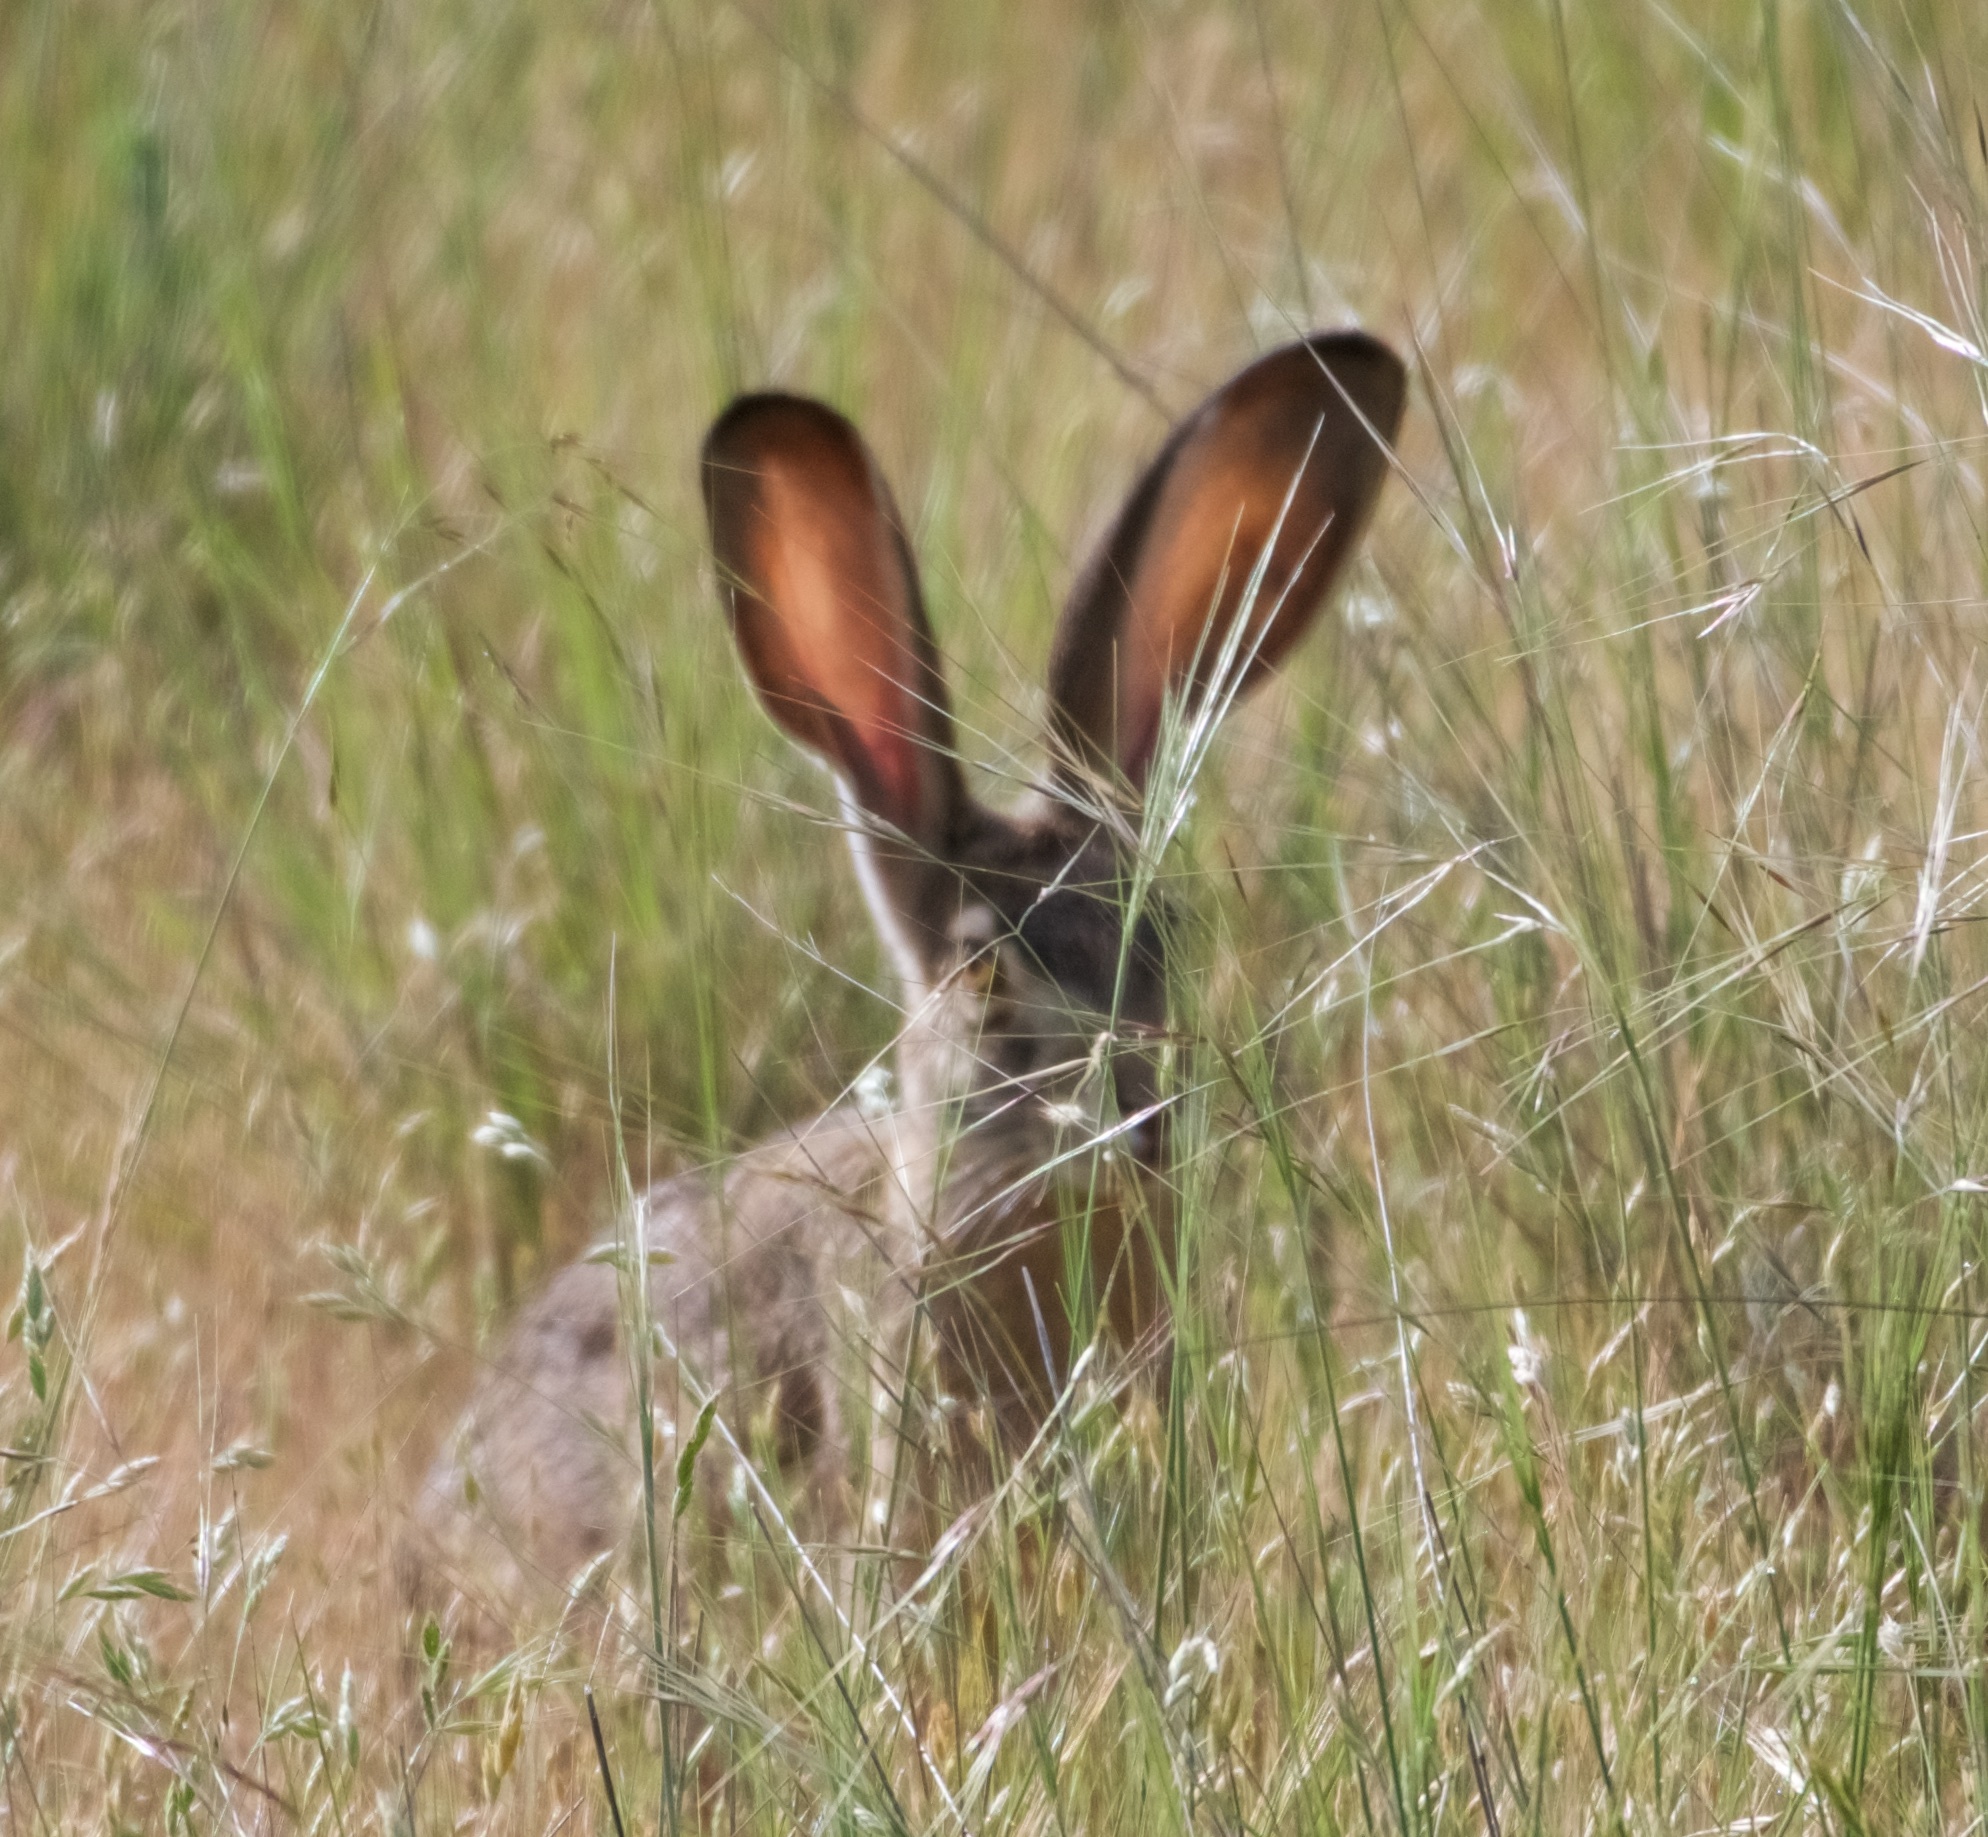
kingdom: Animalia
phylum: Chordata
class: Mammalia
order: Lagomorpha
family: Leporidae
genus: Lepus
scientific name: Lepus californicus
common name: Black-tailed jackrabbit
